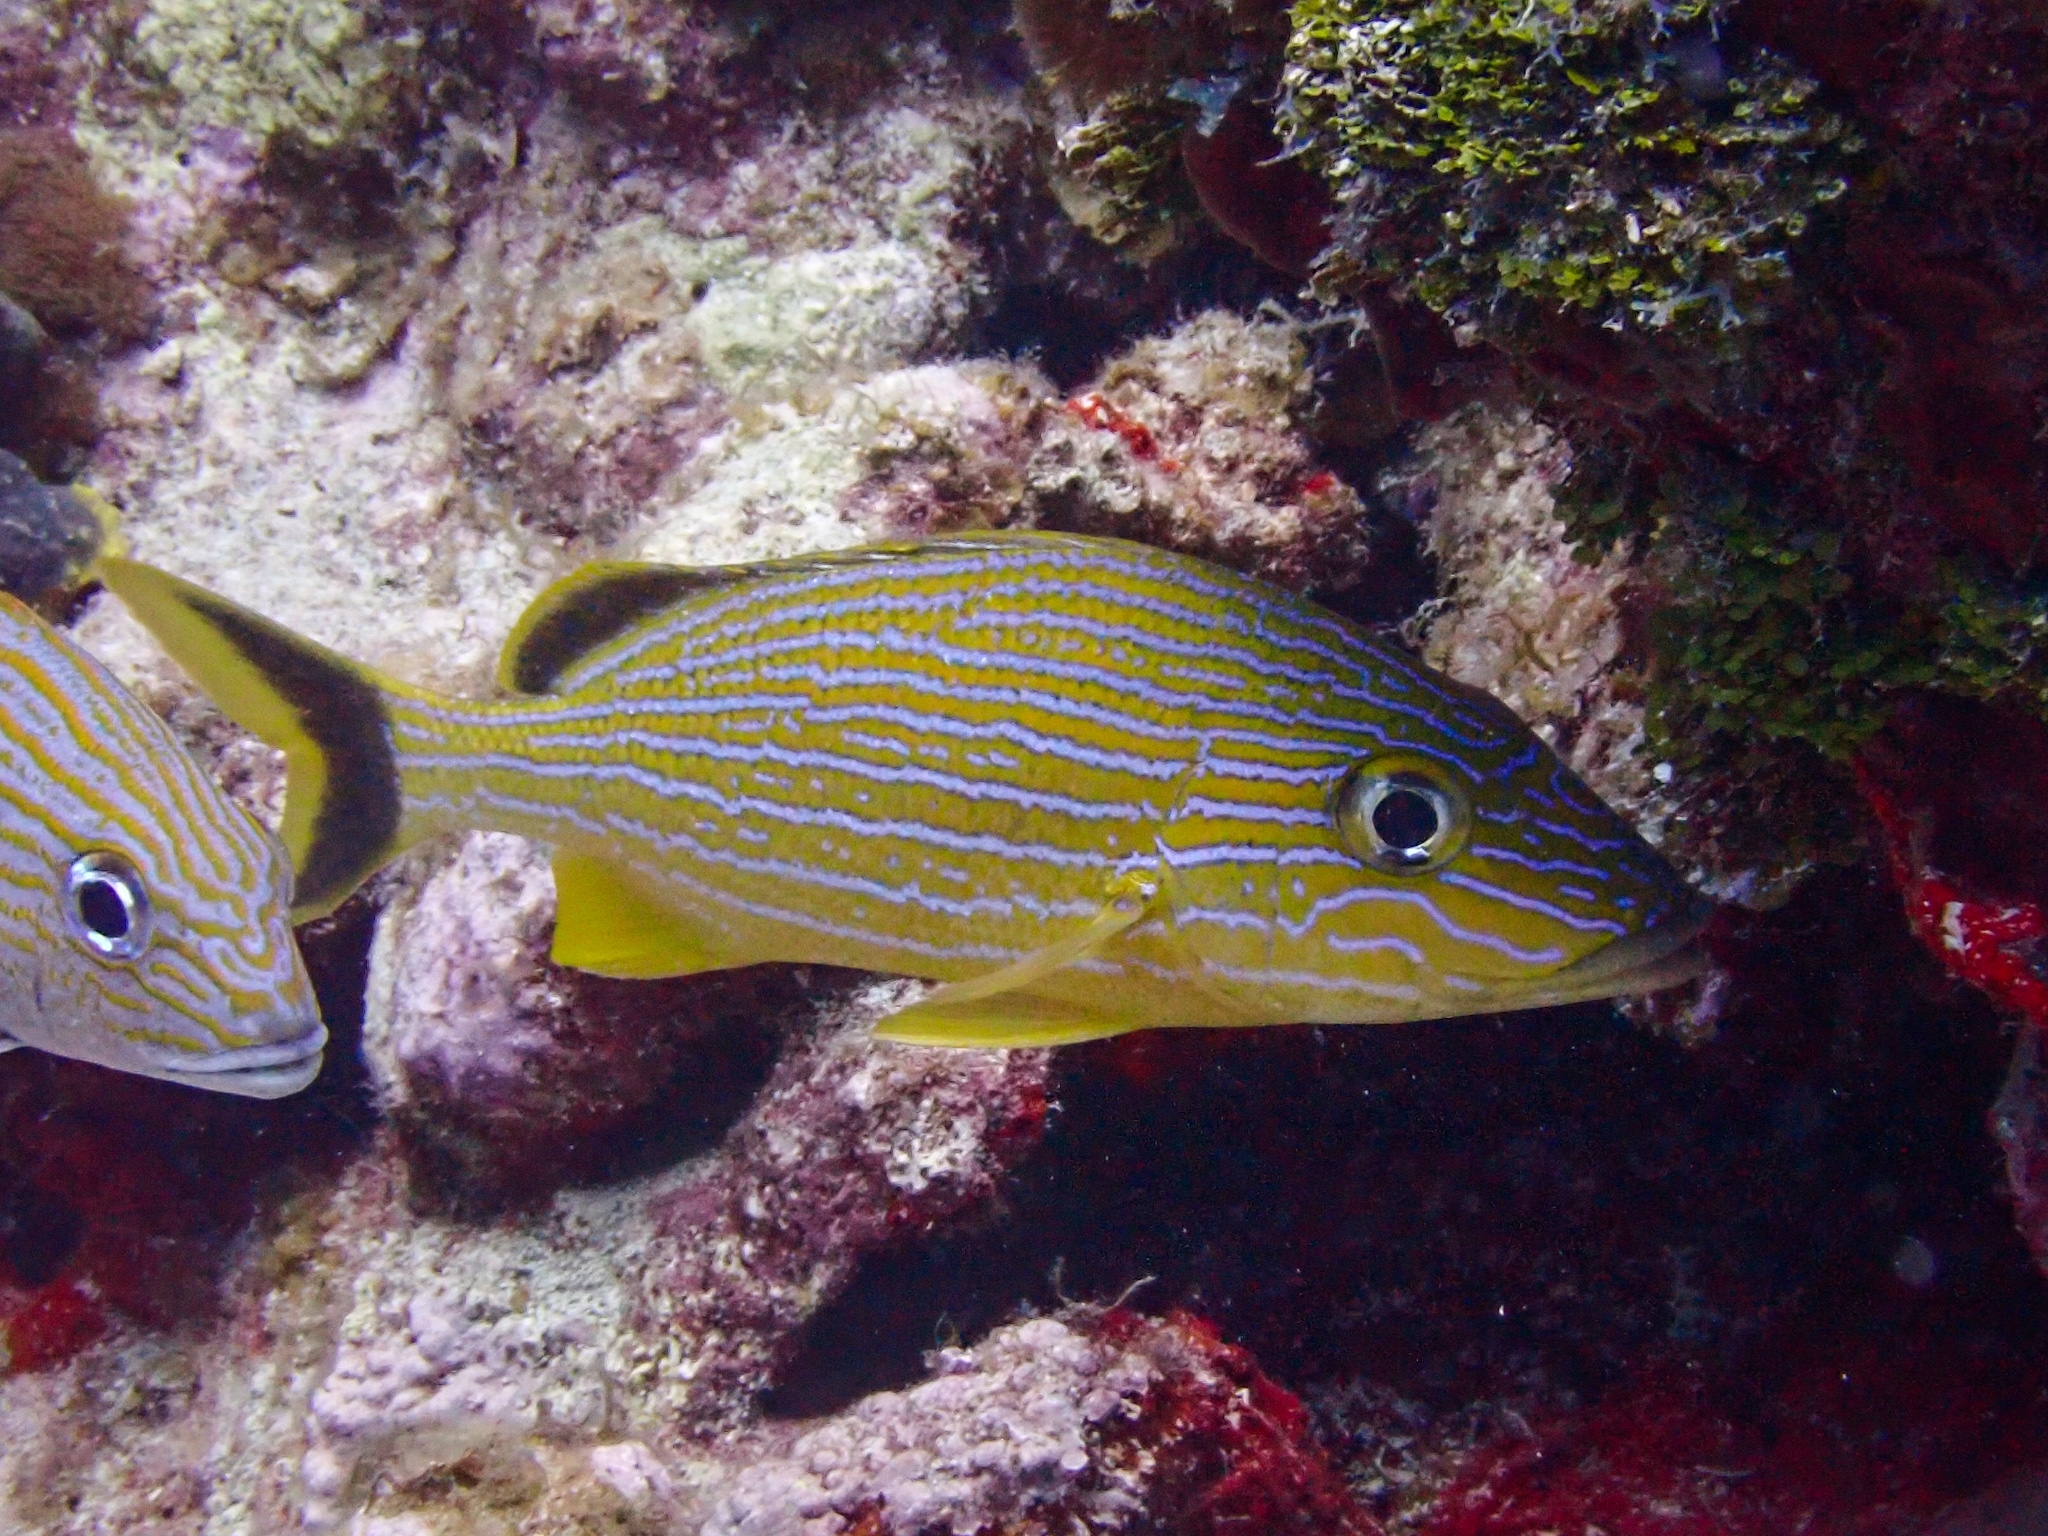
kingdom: Animalia
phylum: Chordata
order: Perciformes
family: Haemulidae
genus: Haemulon
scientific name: Haemulon sciurus
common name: Bluestriped grunt
